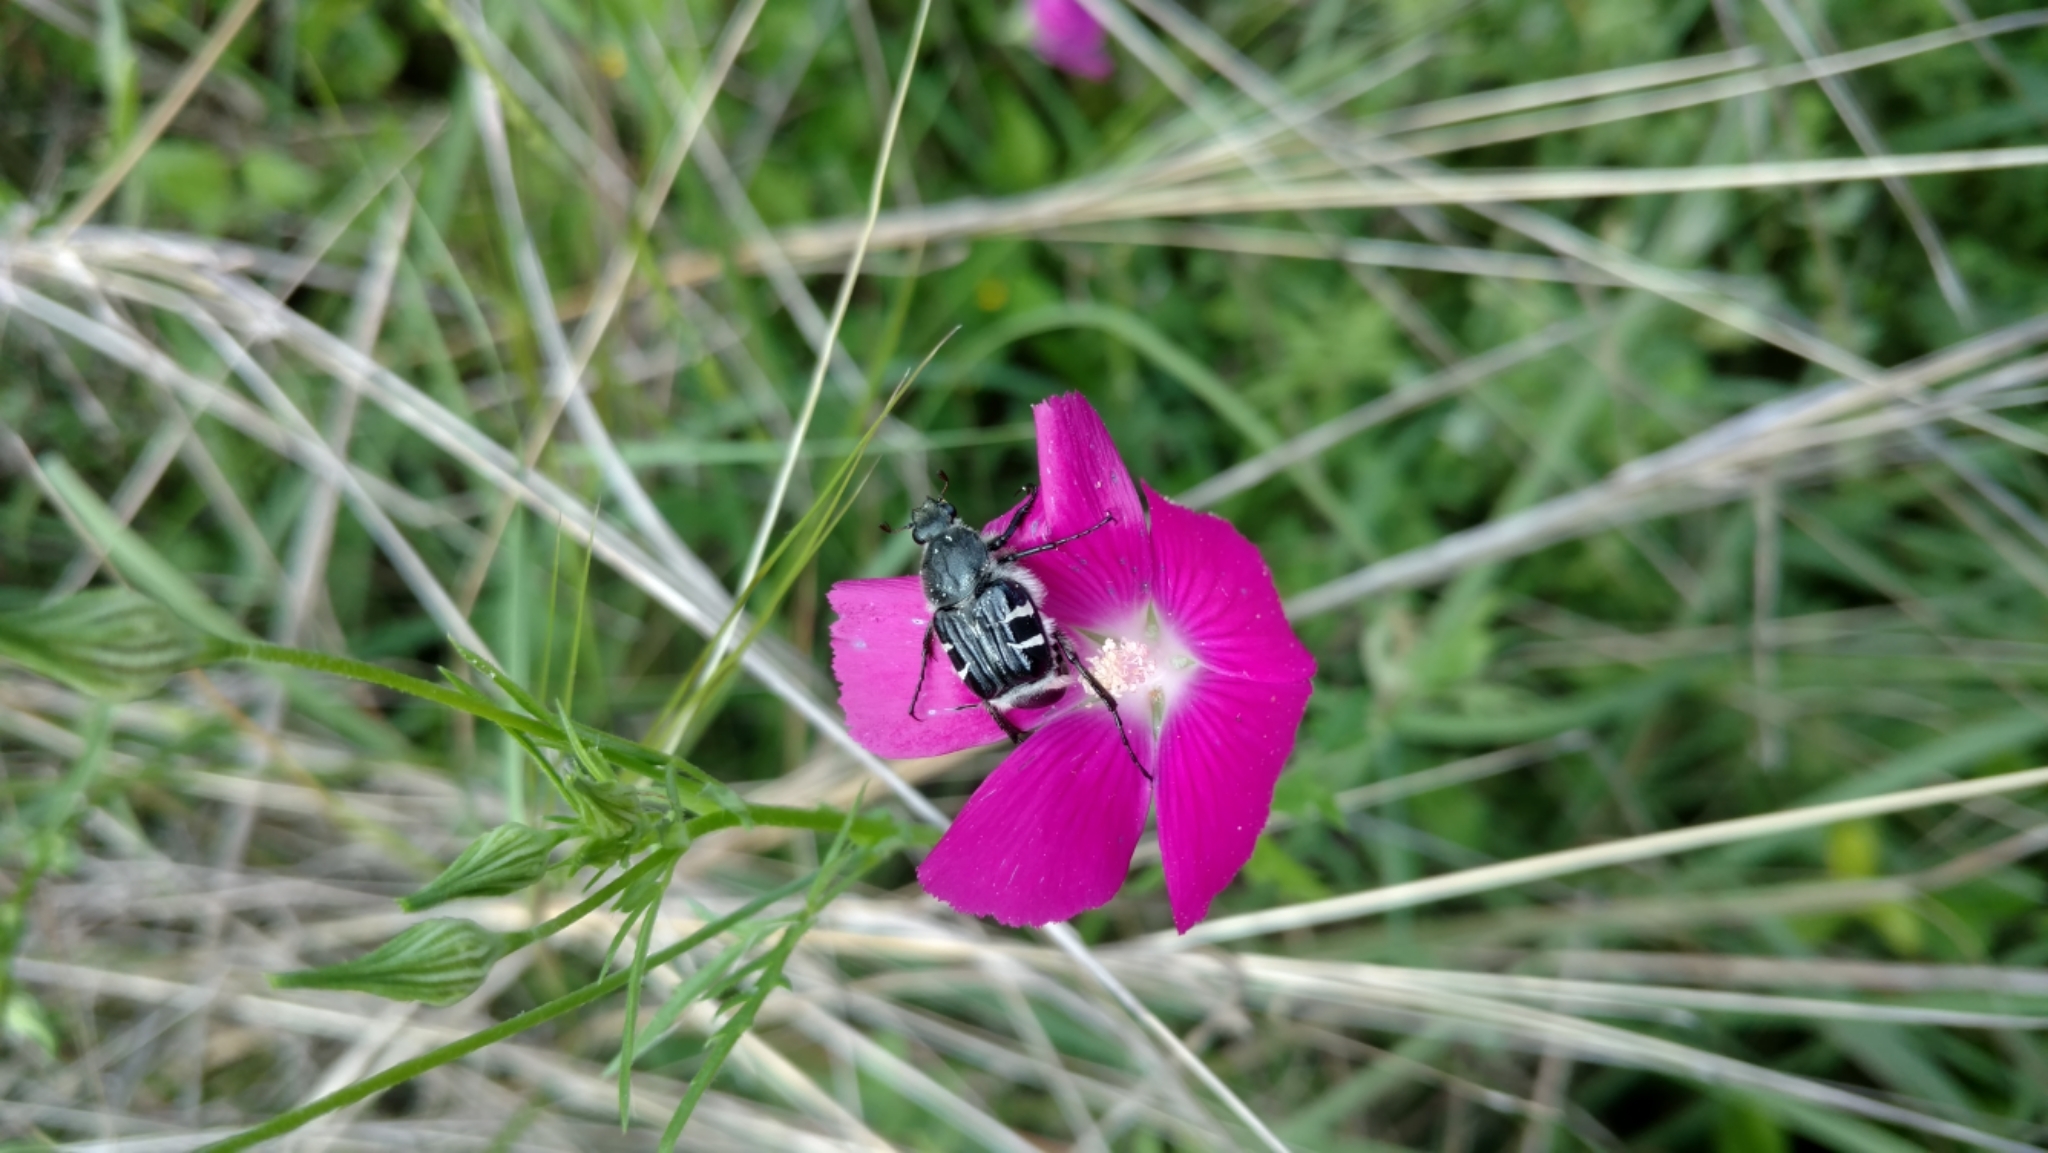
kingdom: Animalia
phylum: Arthropoda
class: Insecta
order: Coleoptera
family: Scarabaeidae
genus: Trichiotinus
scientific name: Trichiotinus texanus
